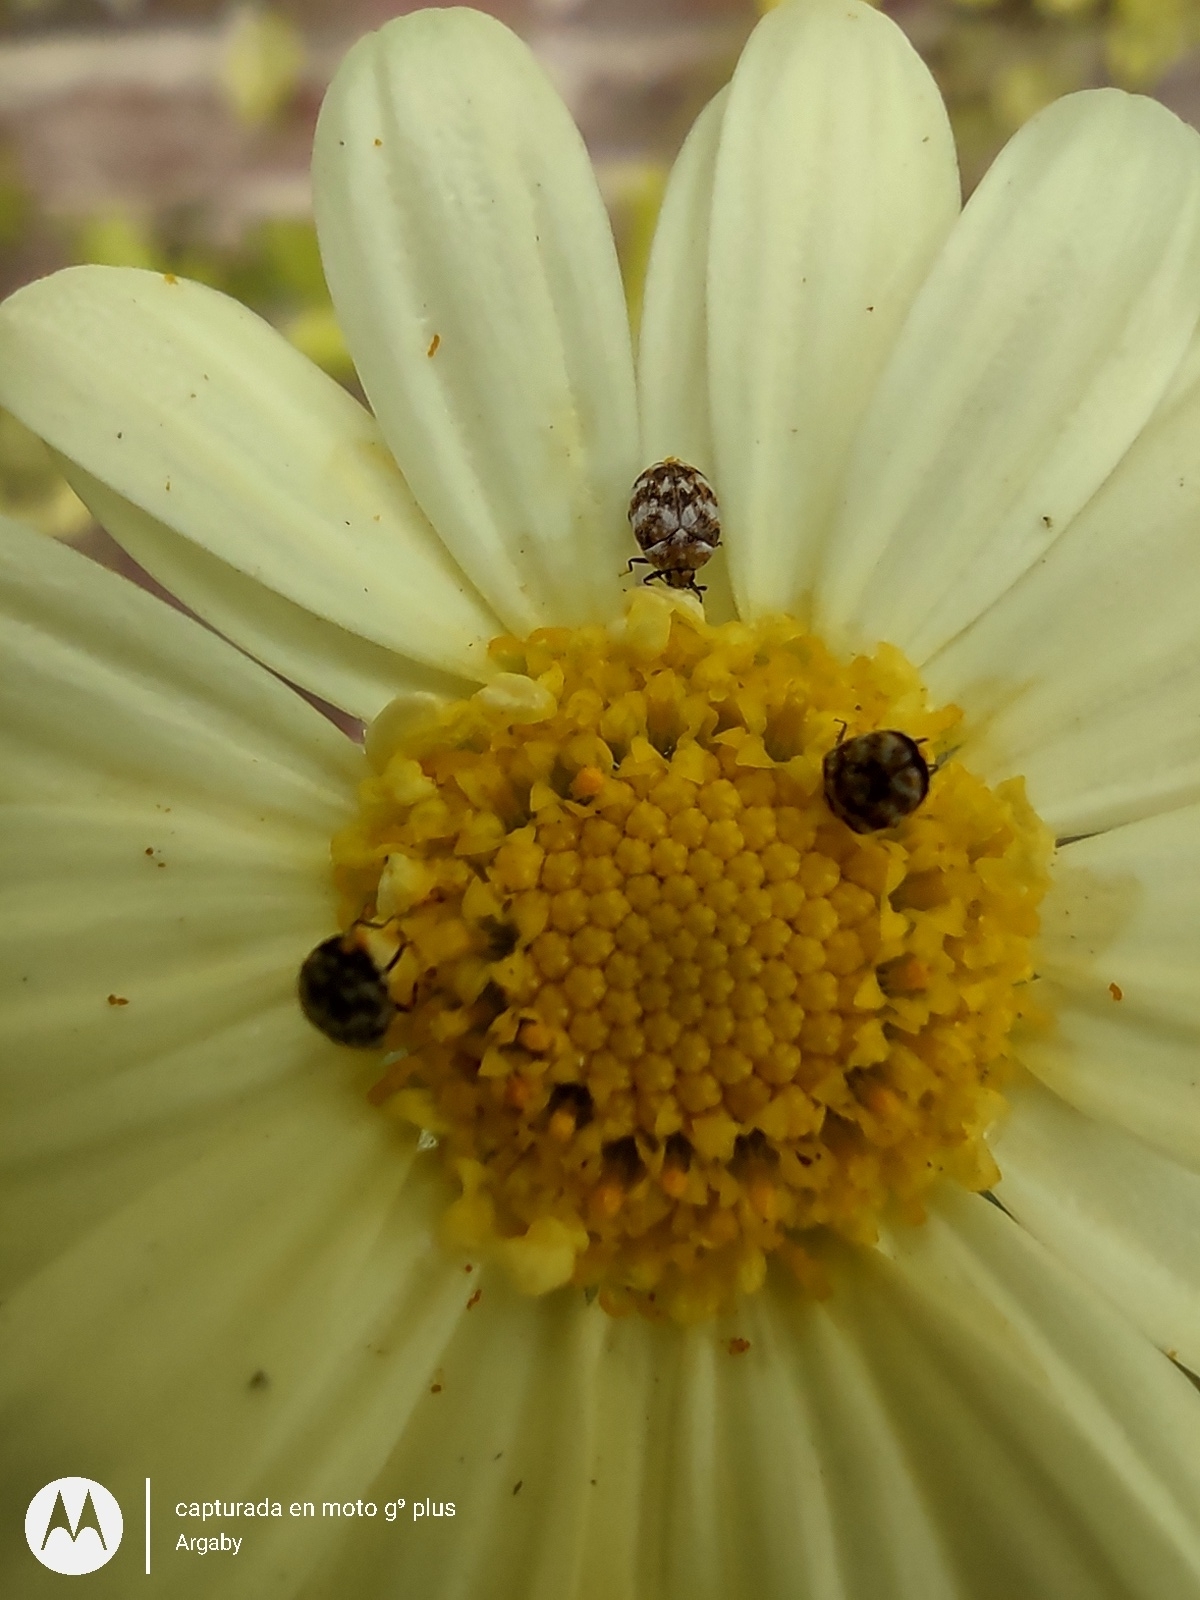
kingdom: Animalia
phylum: Arthropoda
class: Insecta
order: Coleoptera
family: Dermestidae
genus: Anthrenus
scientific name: Anthrenus verbasci
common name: Varied carpet beetle
